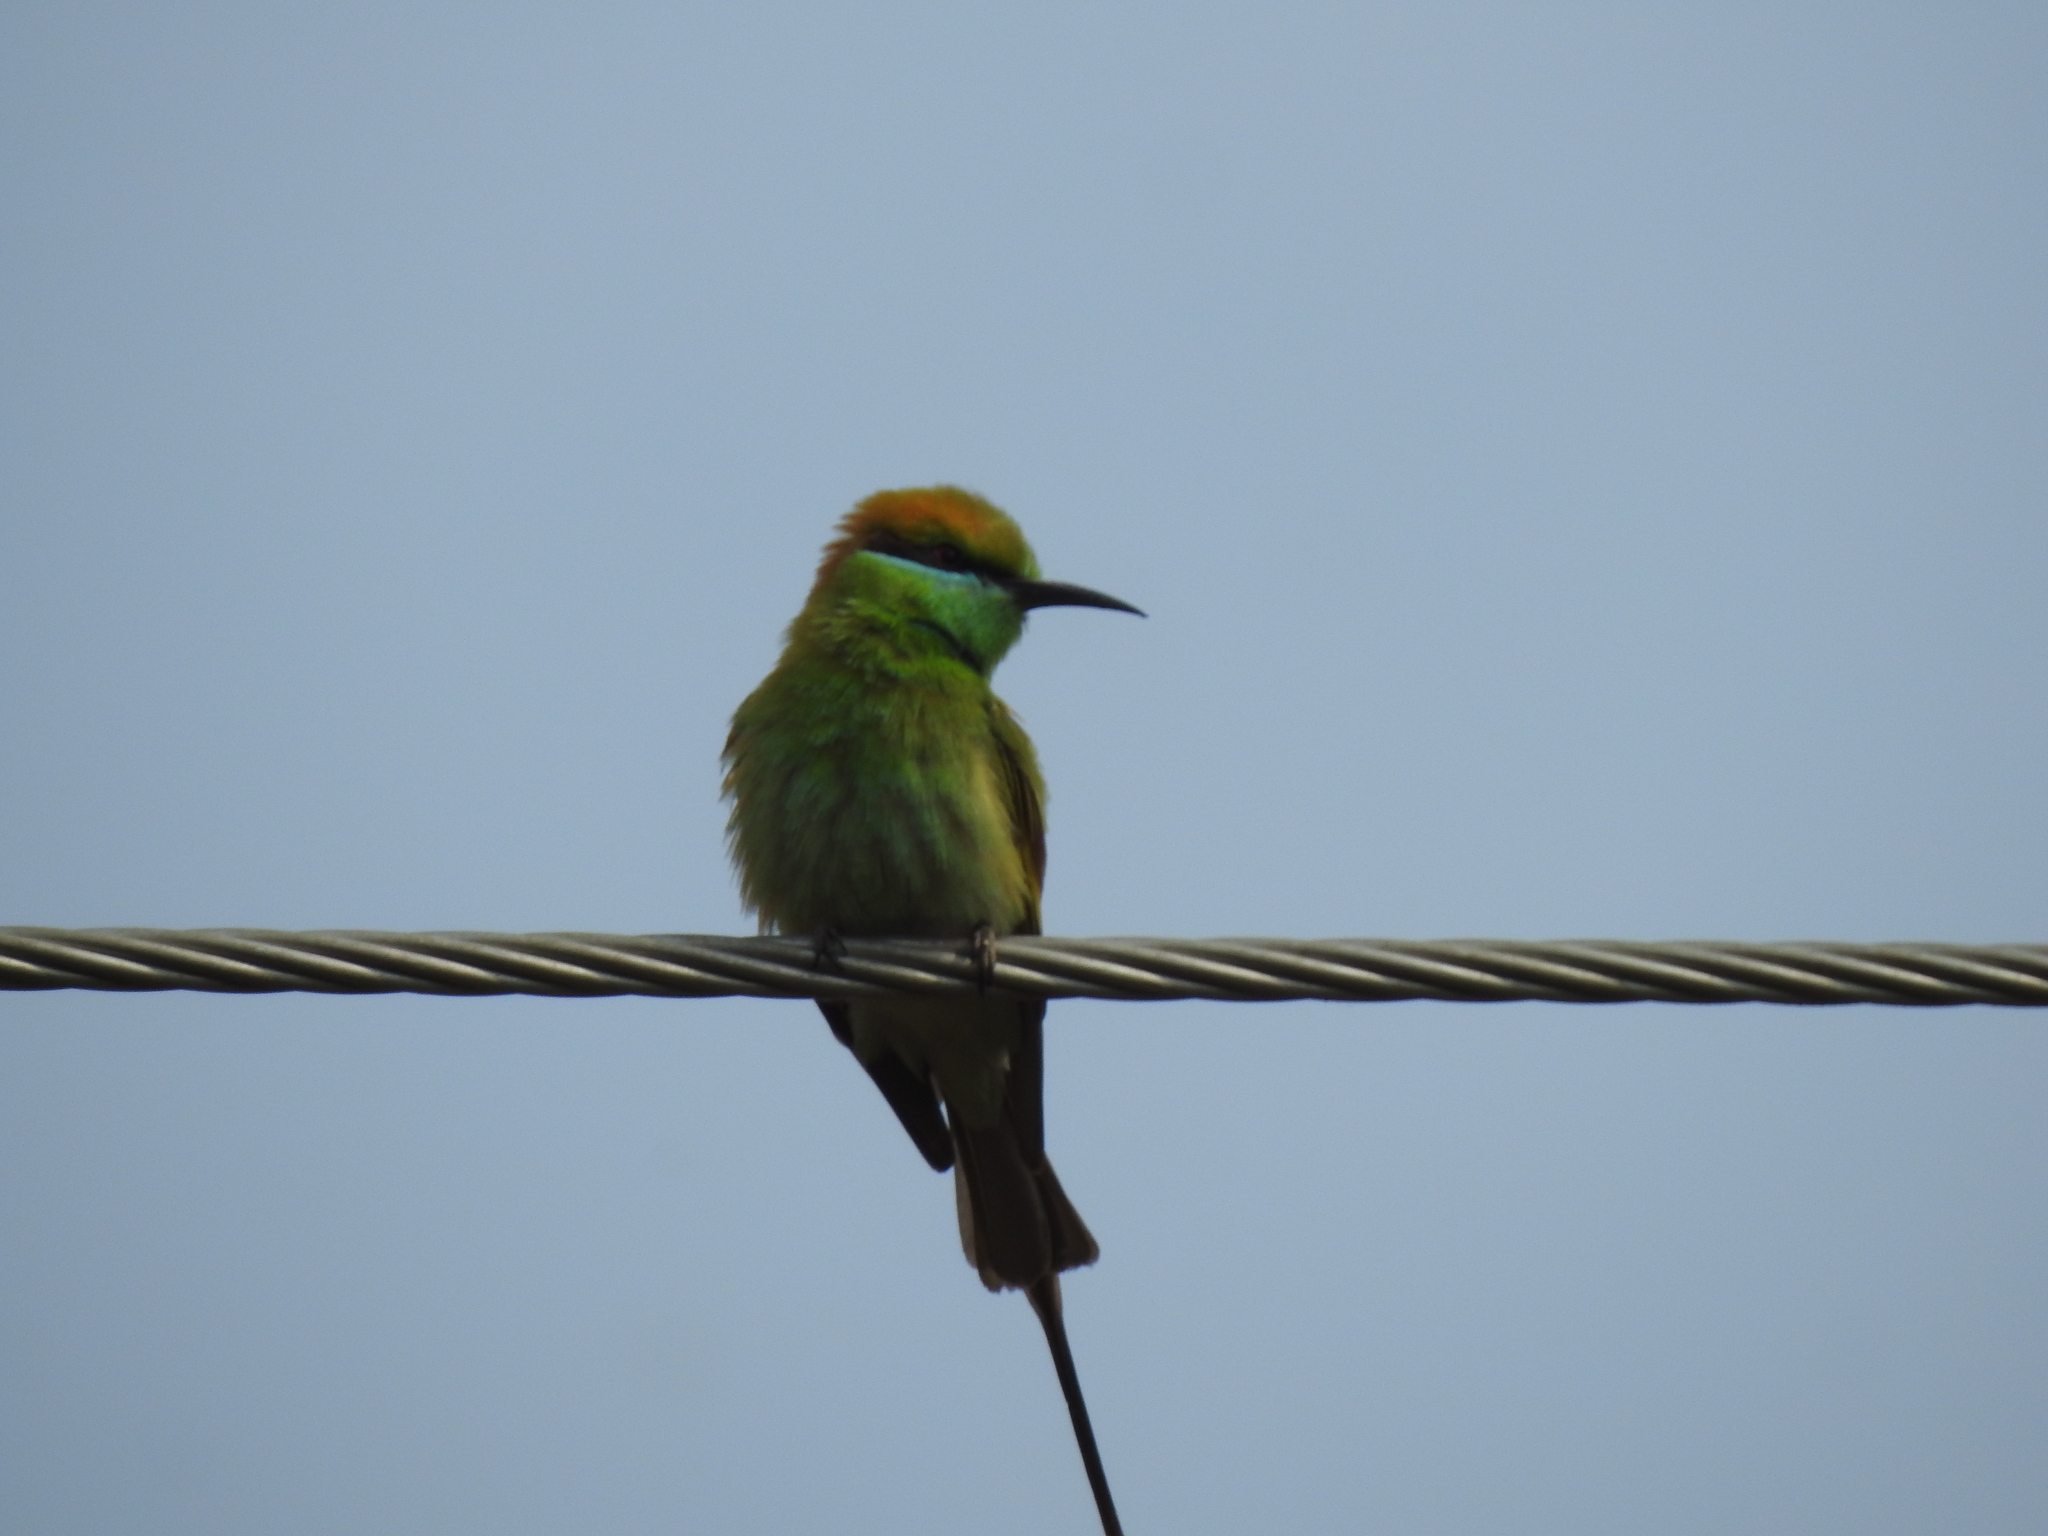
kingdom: Animalia
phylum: Chordata
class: Aves
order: Coraciiformes
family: Meropidae
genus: Merops
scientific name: Merops orientalis
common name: Green bee-eater
